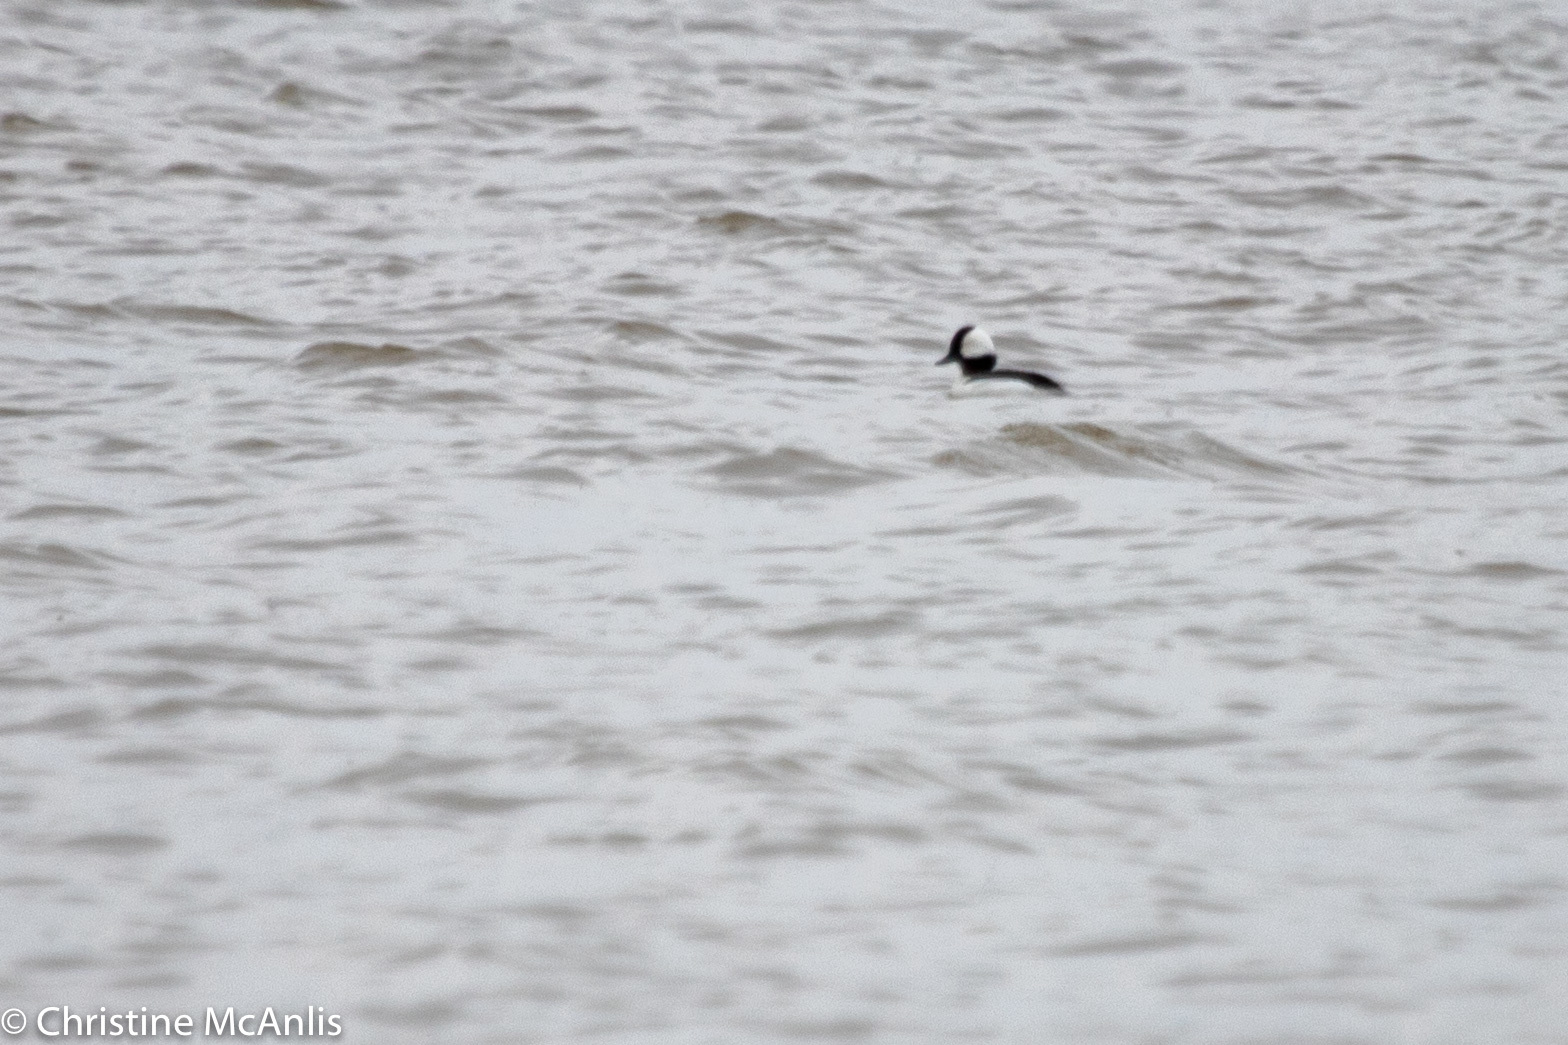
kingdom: Animalia
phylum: Chordata
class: Aves
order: Anseriformes
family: Anatidae
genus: Bucephala
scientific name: Bucephala albeola
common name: Bufflehead
